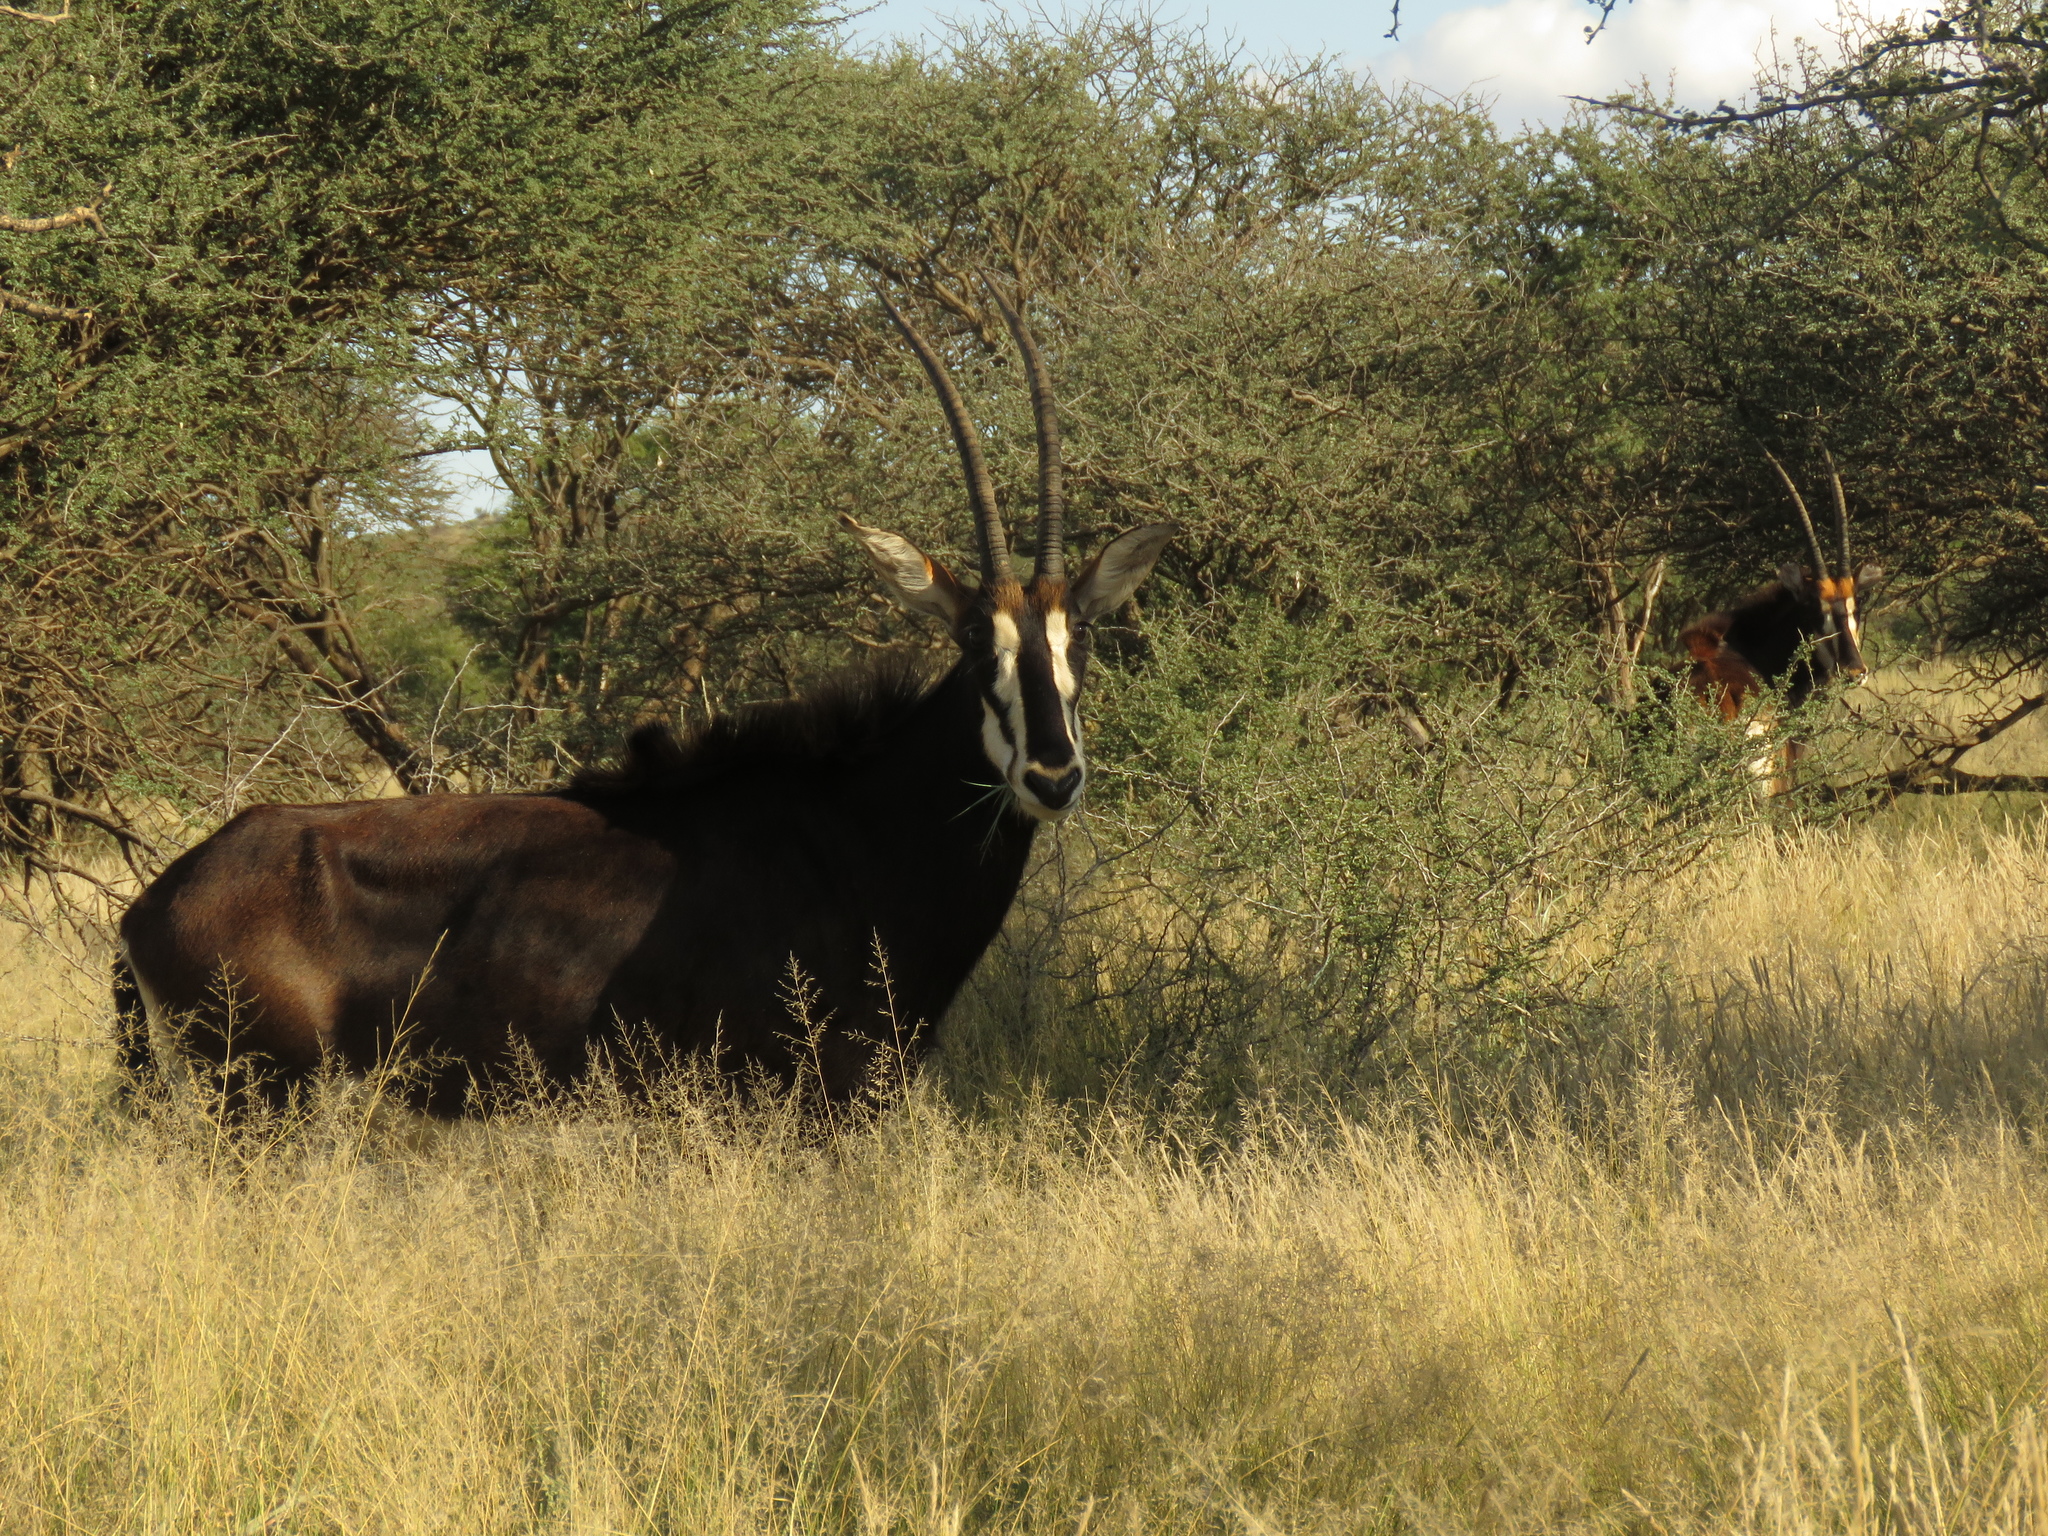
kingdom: Animalia
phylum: Chordata
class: Mammalia
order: Artiodactyla
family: Bovidae
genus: Hippotragus
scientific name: Hippotragus niger
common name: Sable antelope
